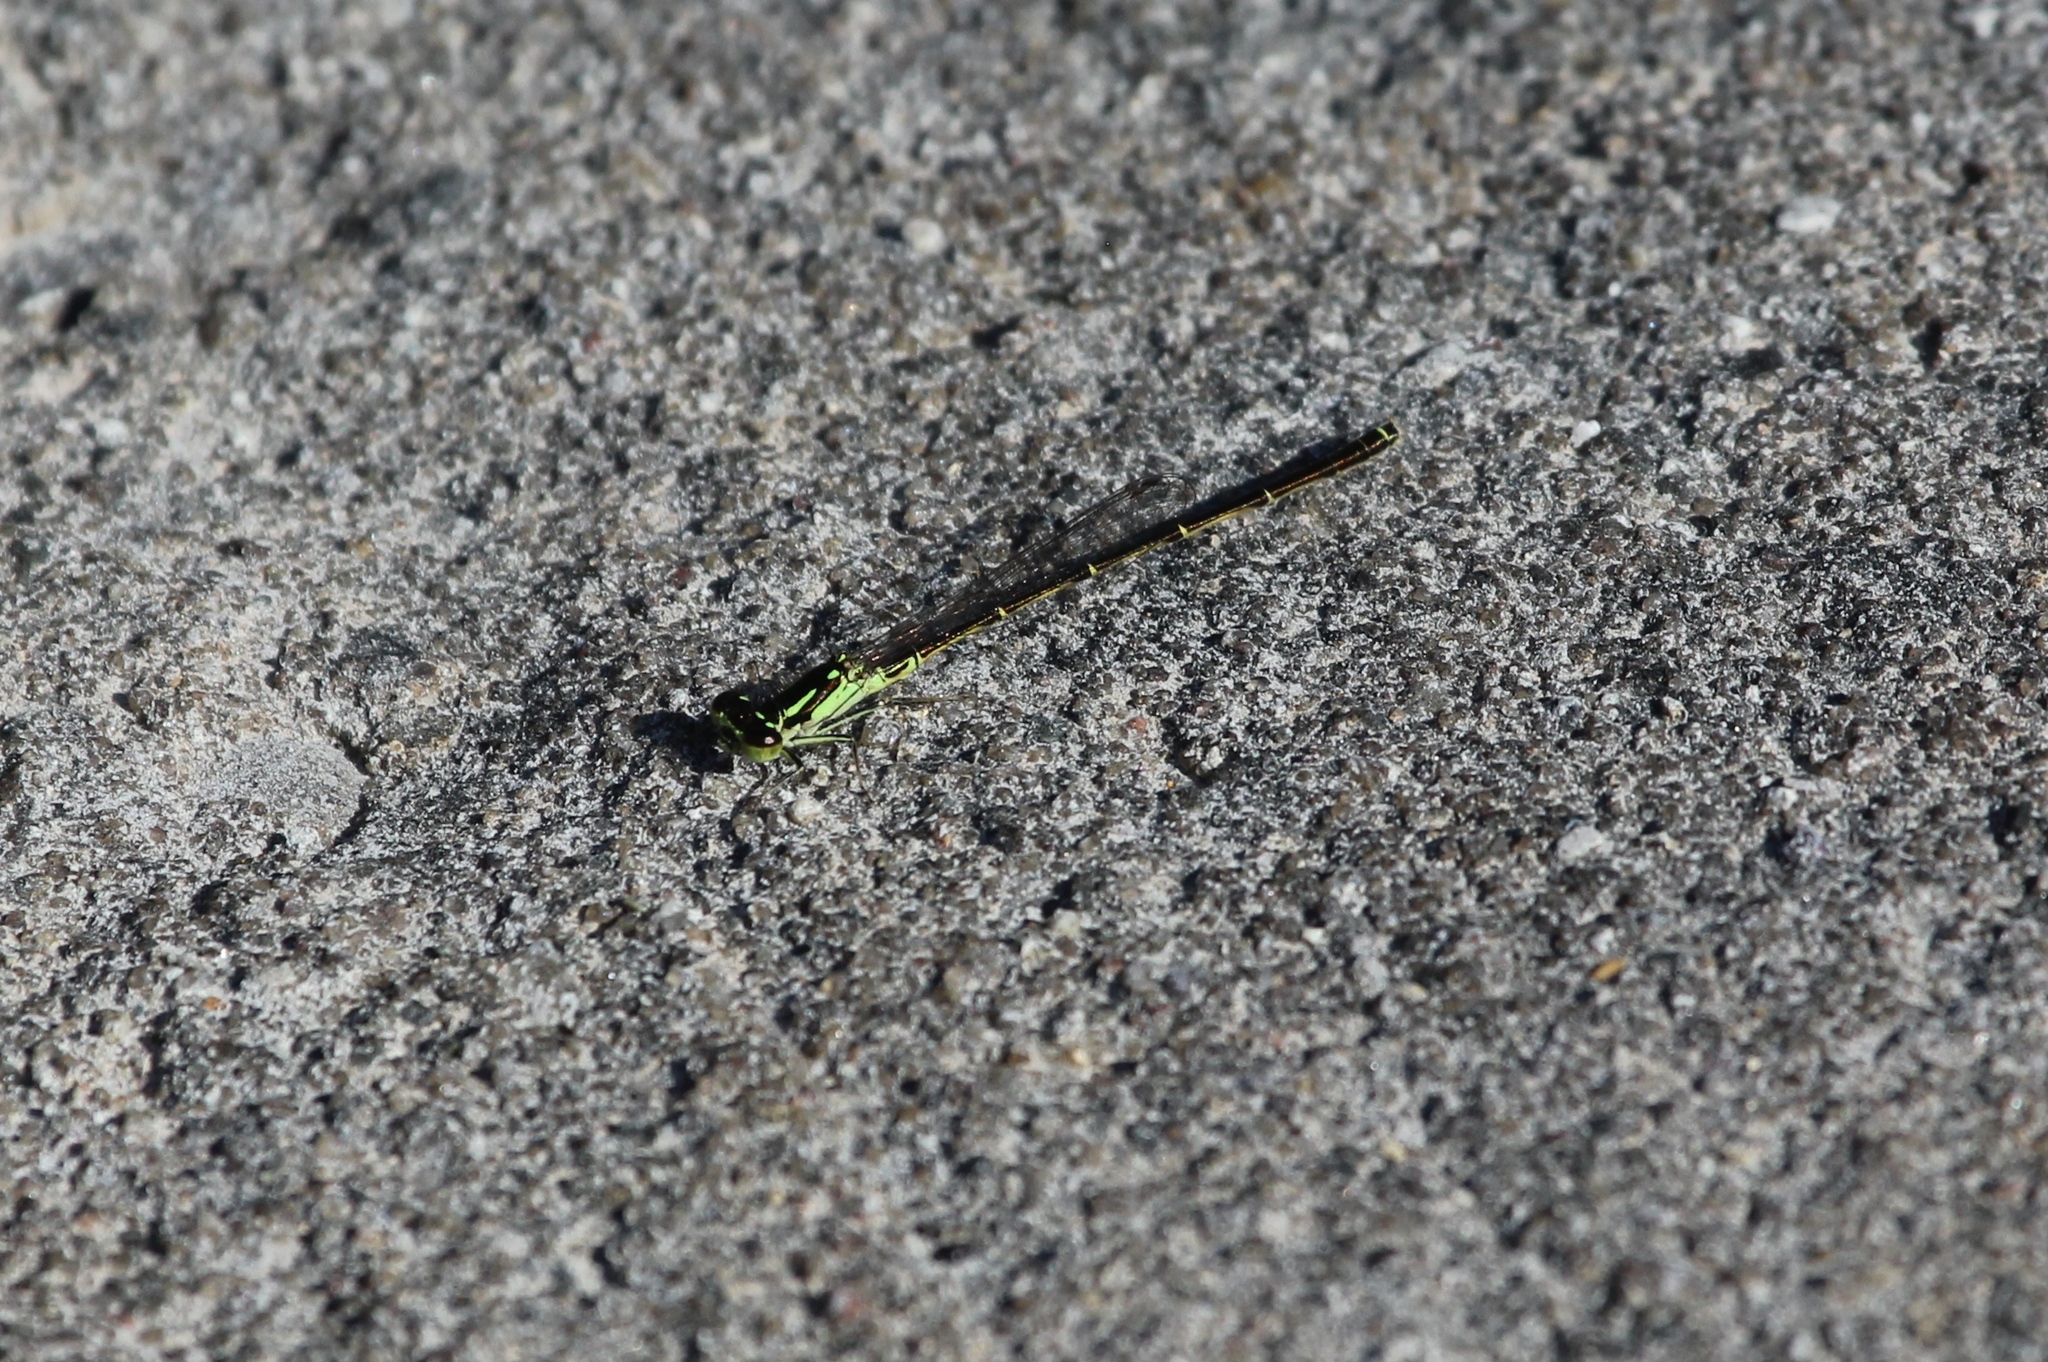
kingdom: Animalia
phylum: Arthropoda
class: Insecta
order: Odonata
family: Coenagrionidae
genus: Ischnura
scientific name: Ischnura posita
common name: Fragile forktail
